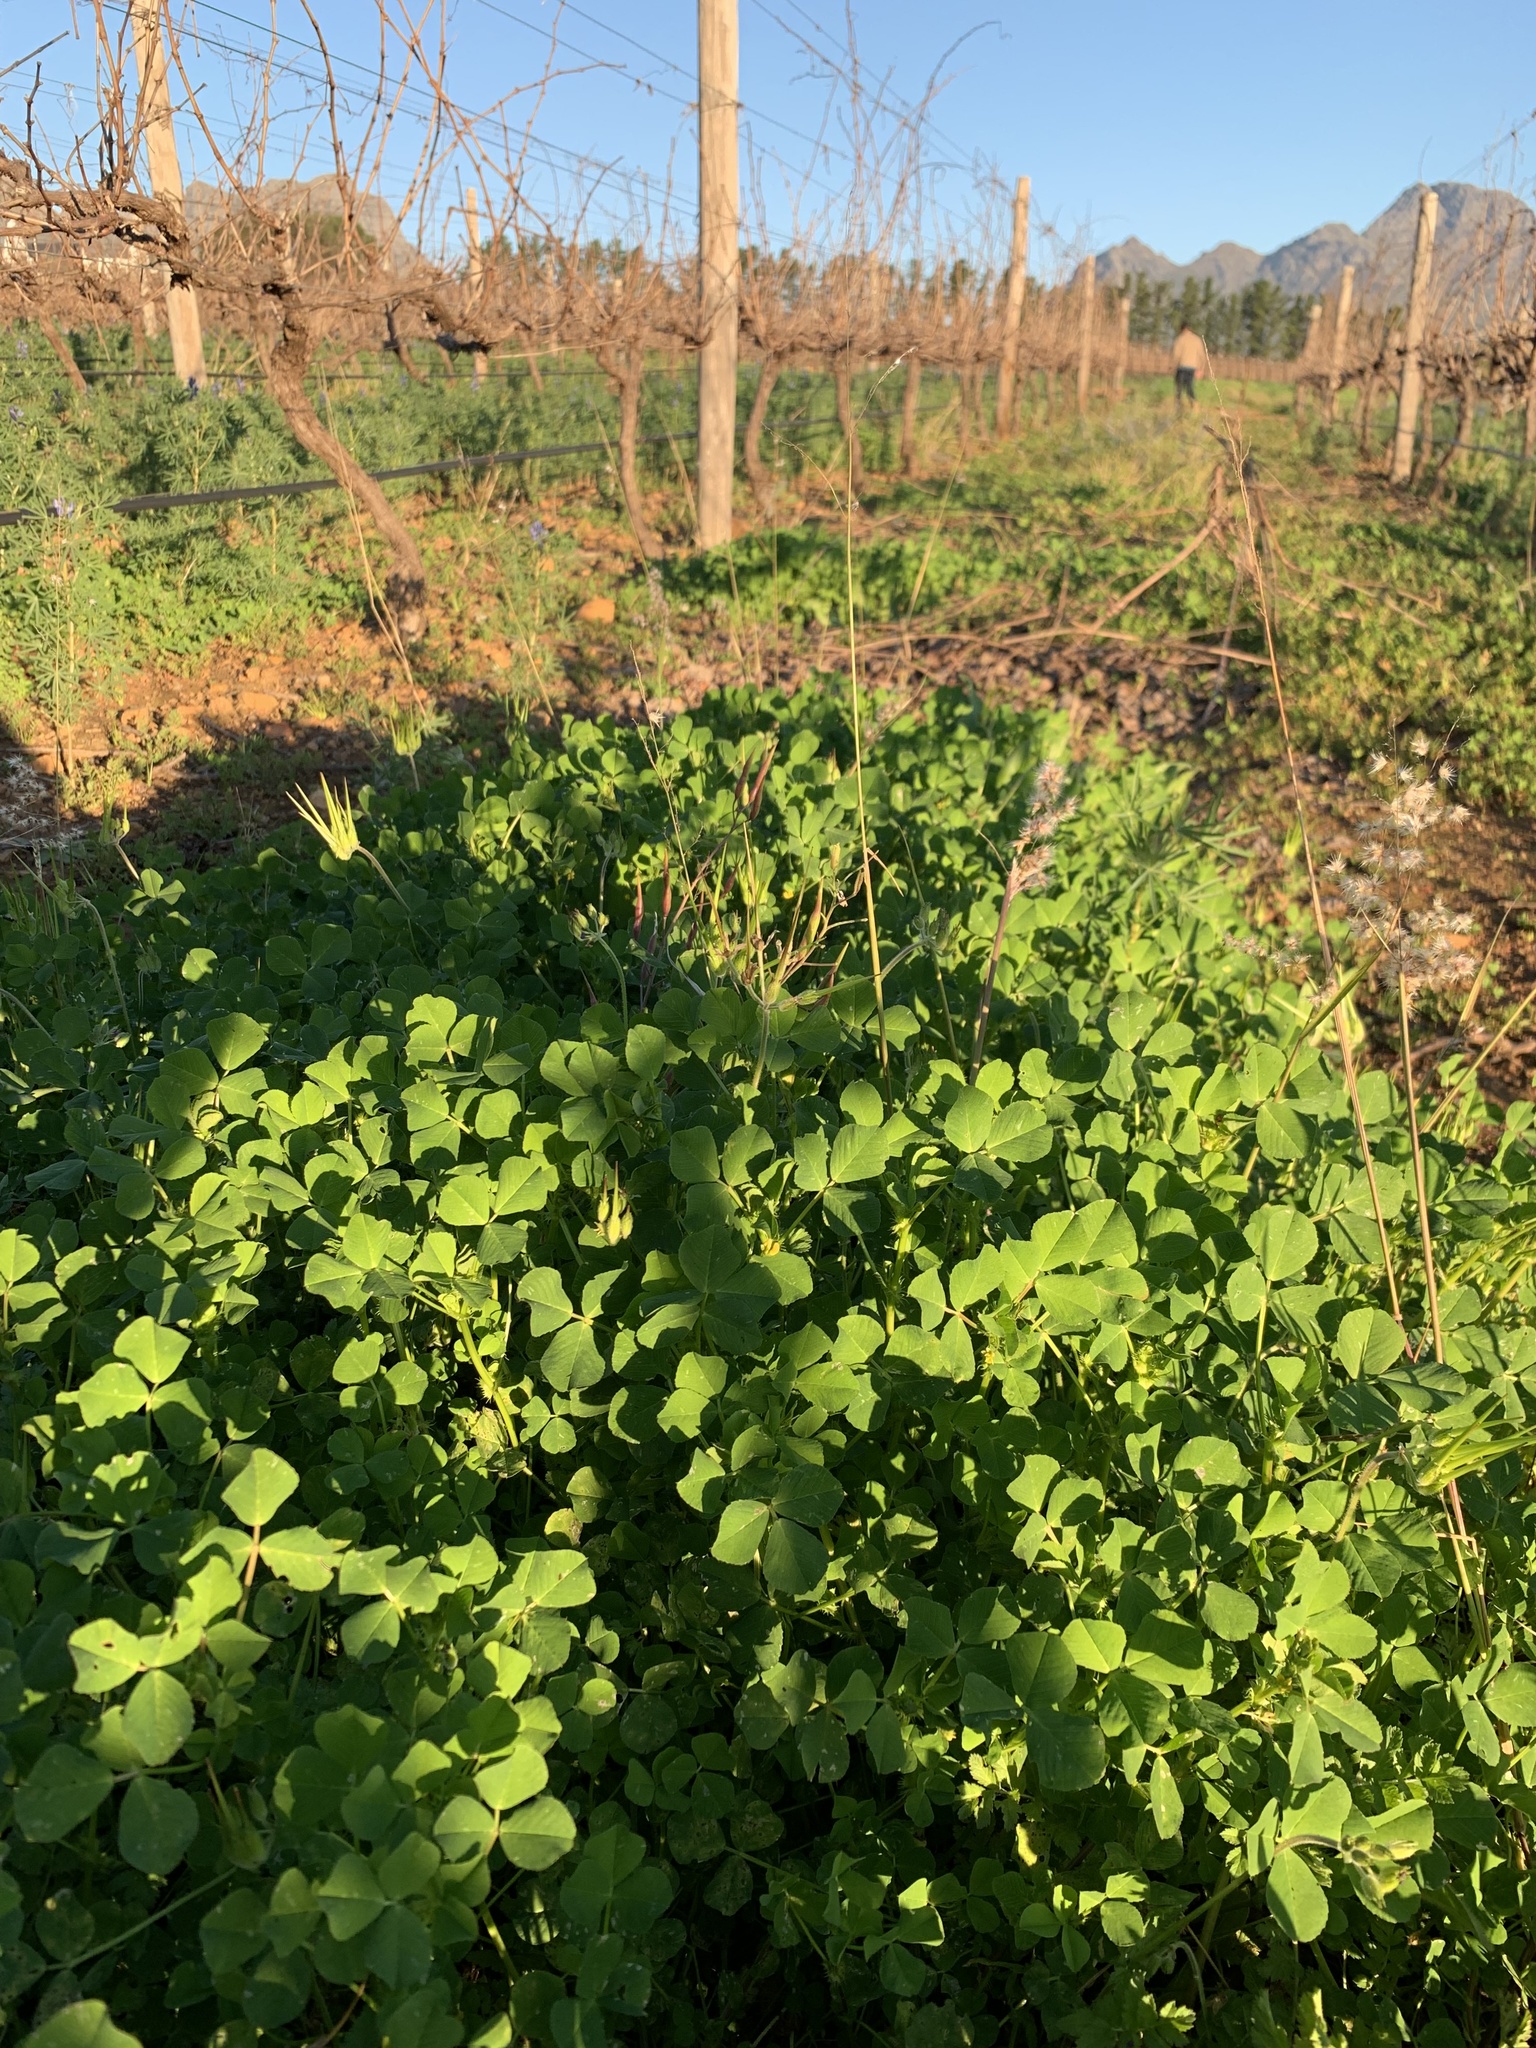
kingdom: Plantae
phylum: Tracheophyta
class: Magnoliopsida
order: Fabales
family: Fabaceae
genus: Medicago
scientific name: Medicago polymorpha
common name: Burclover
